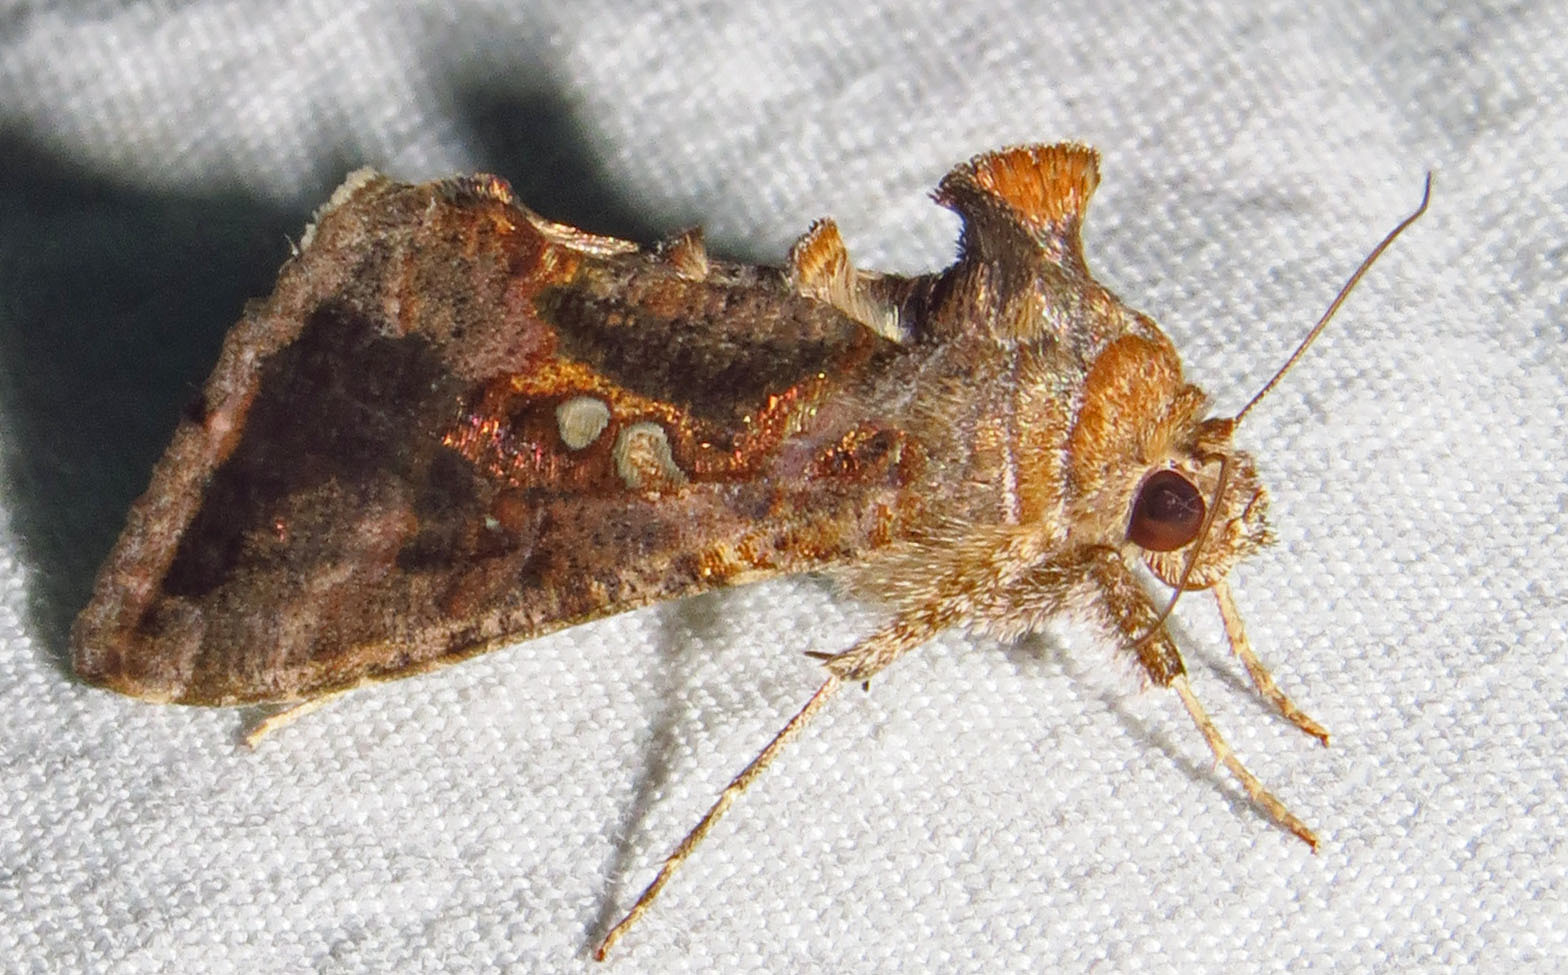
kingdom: Animalia
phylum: Arthropoda
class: Insecta
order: Lepidoptera
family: Noctuidae
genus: Chrysodeixis
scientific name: Chrysodeixis includens
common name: Cutworm moth
